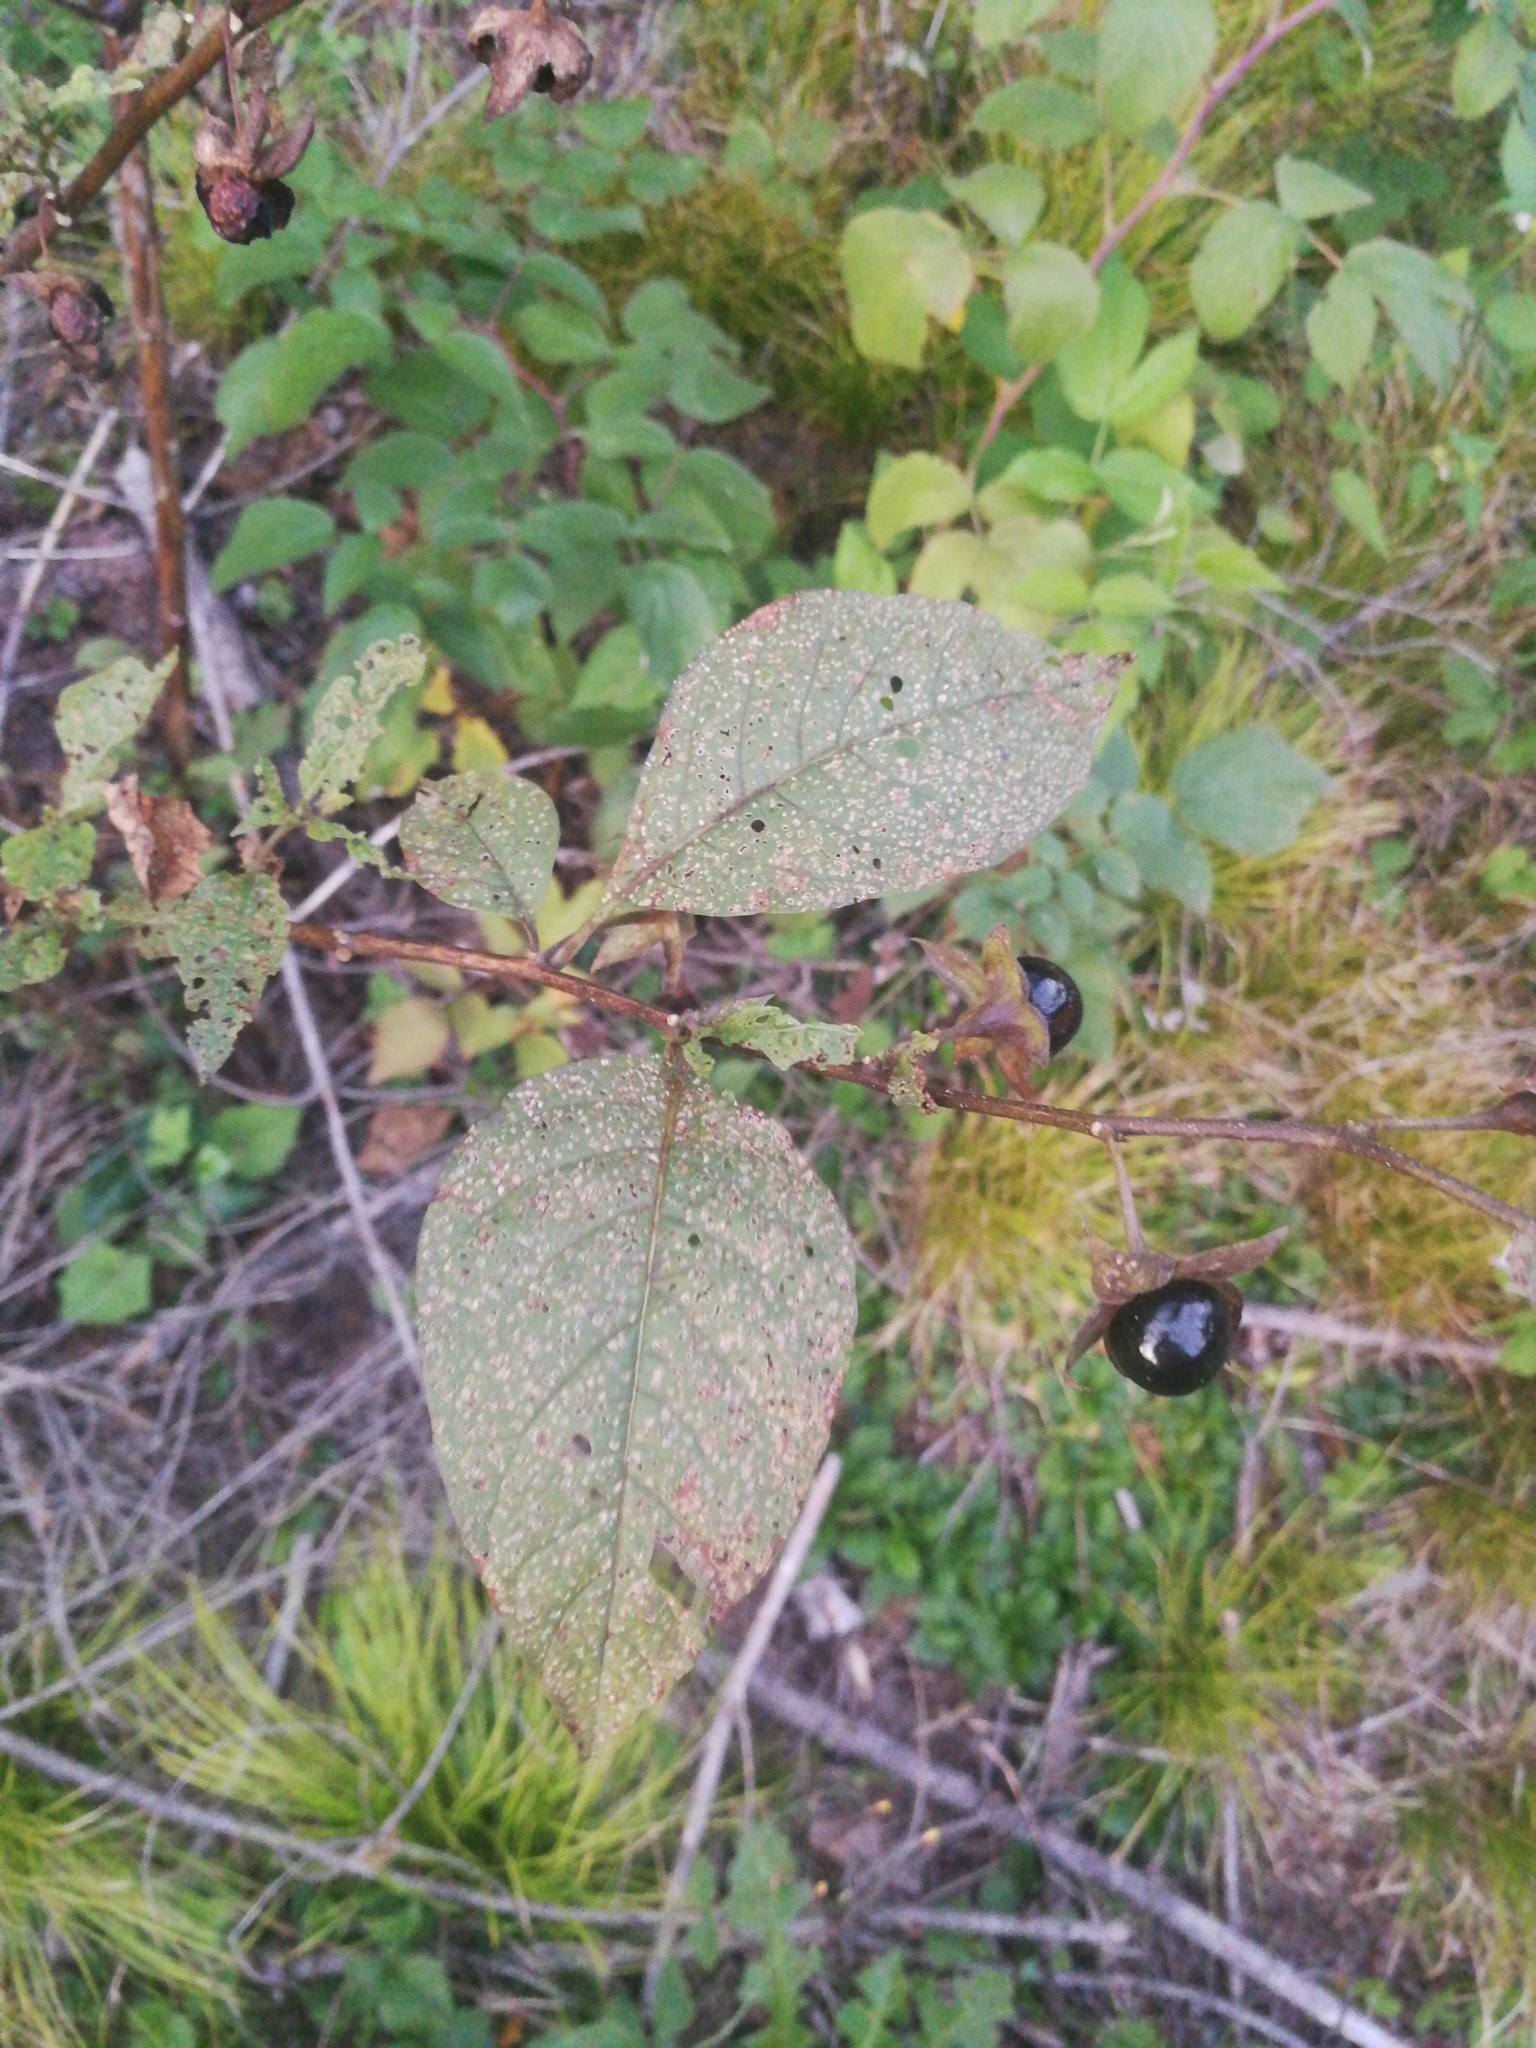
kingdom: Plantae
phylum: Tracheophyta
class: Magnoliopsida
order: Solanales
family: Solanaceae
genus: Atropa
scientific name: Atropa belladonna
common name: Deadly nightshade
